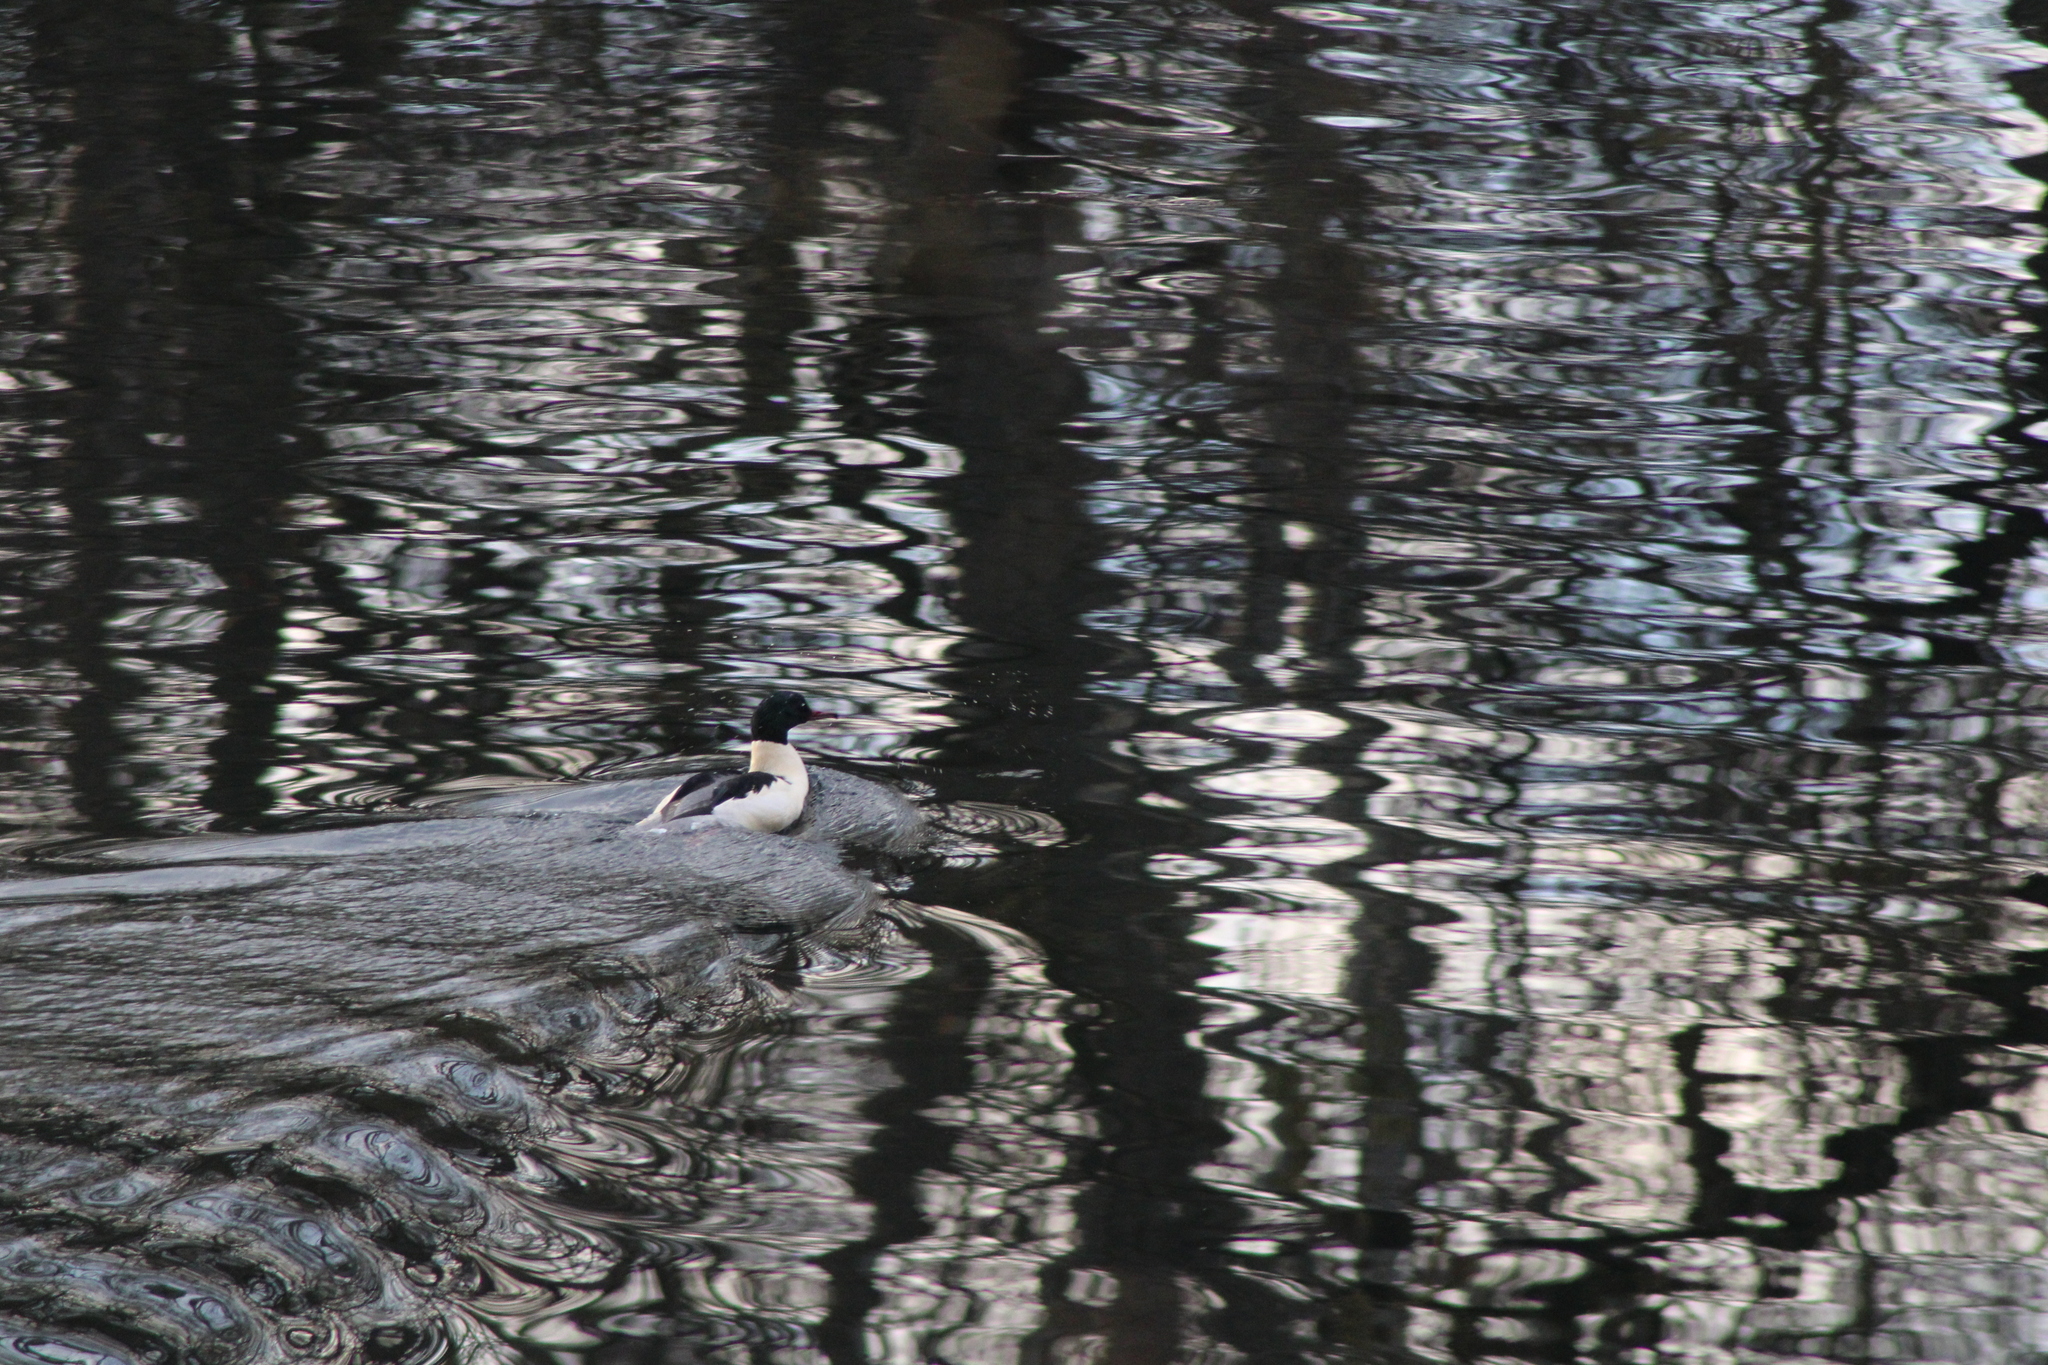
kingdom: Animalia
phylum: Chordata
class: Aves
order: Anseriformes
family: Anatidae
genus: Mergus
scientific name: Mergus merganser
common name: Common merganser
